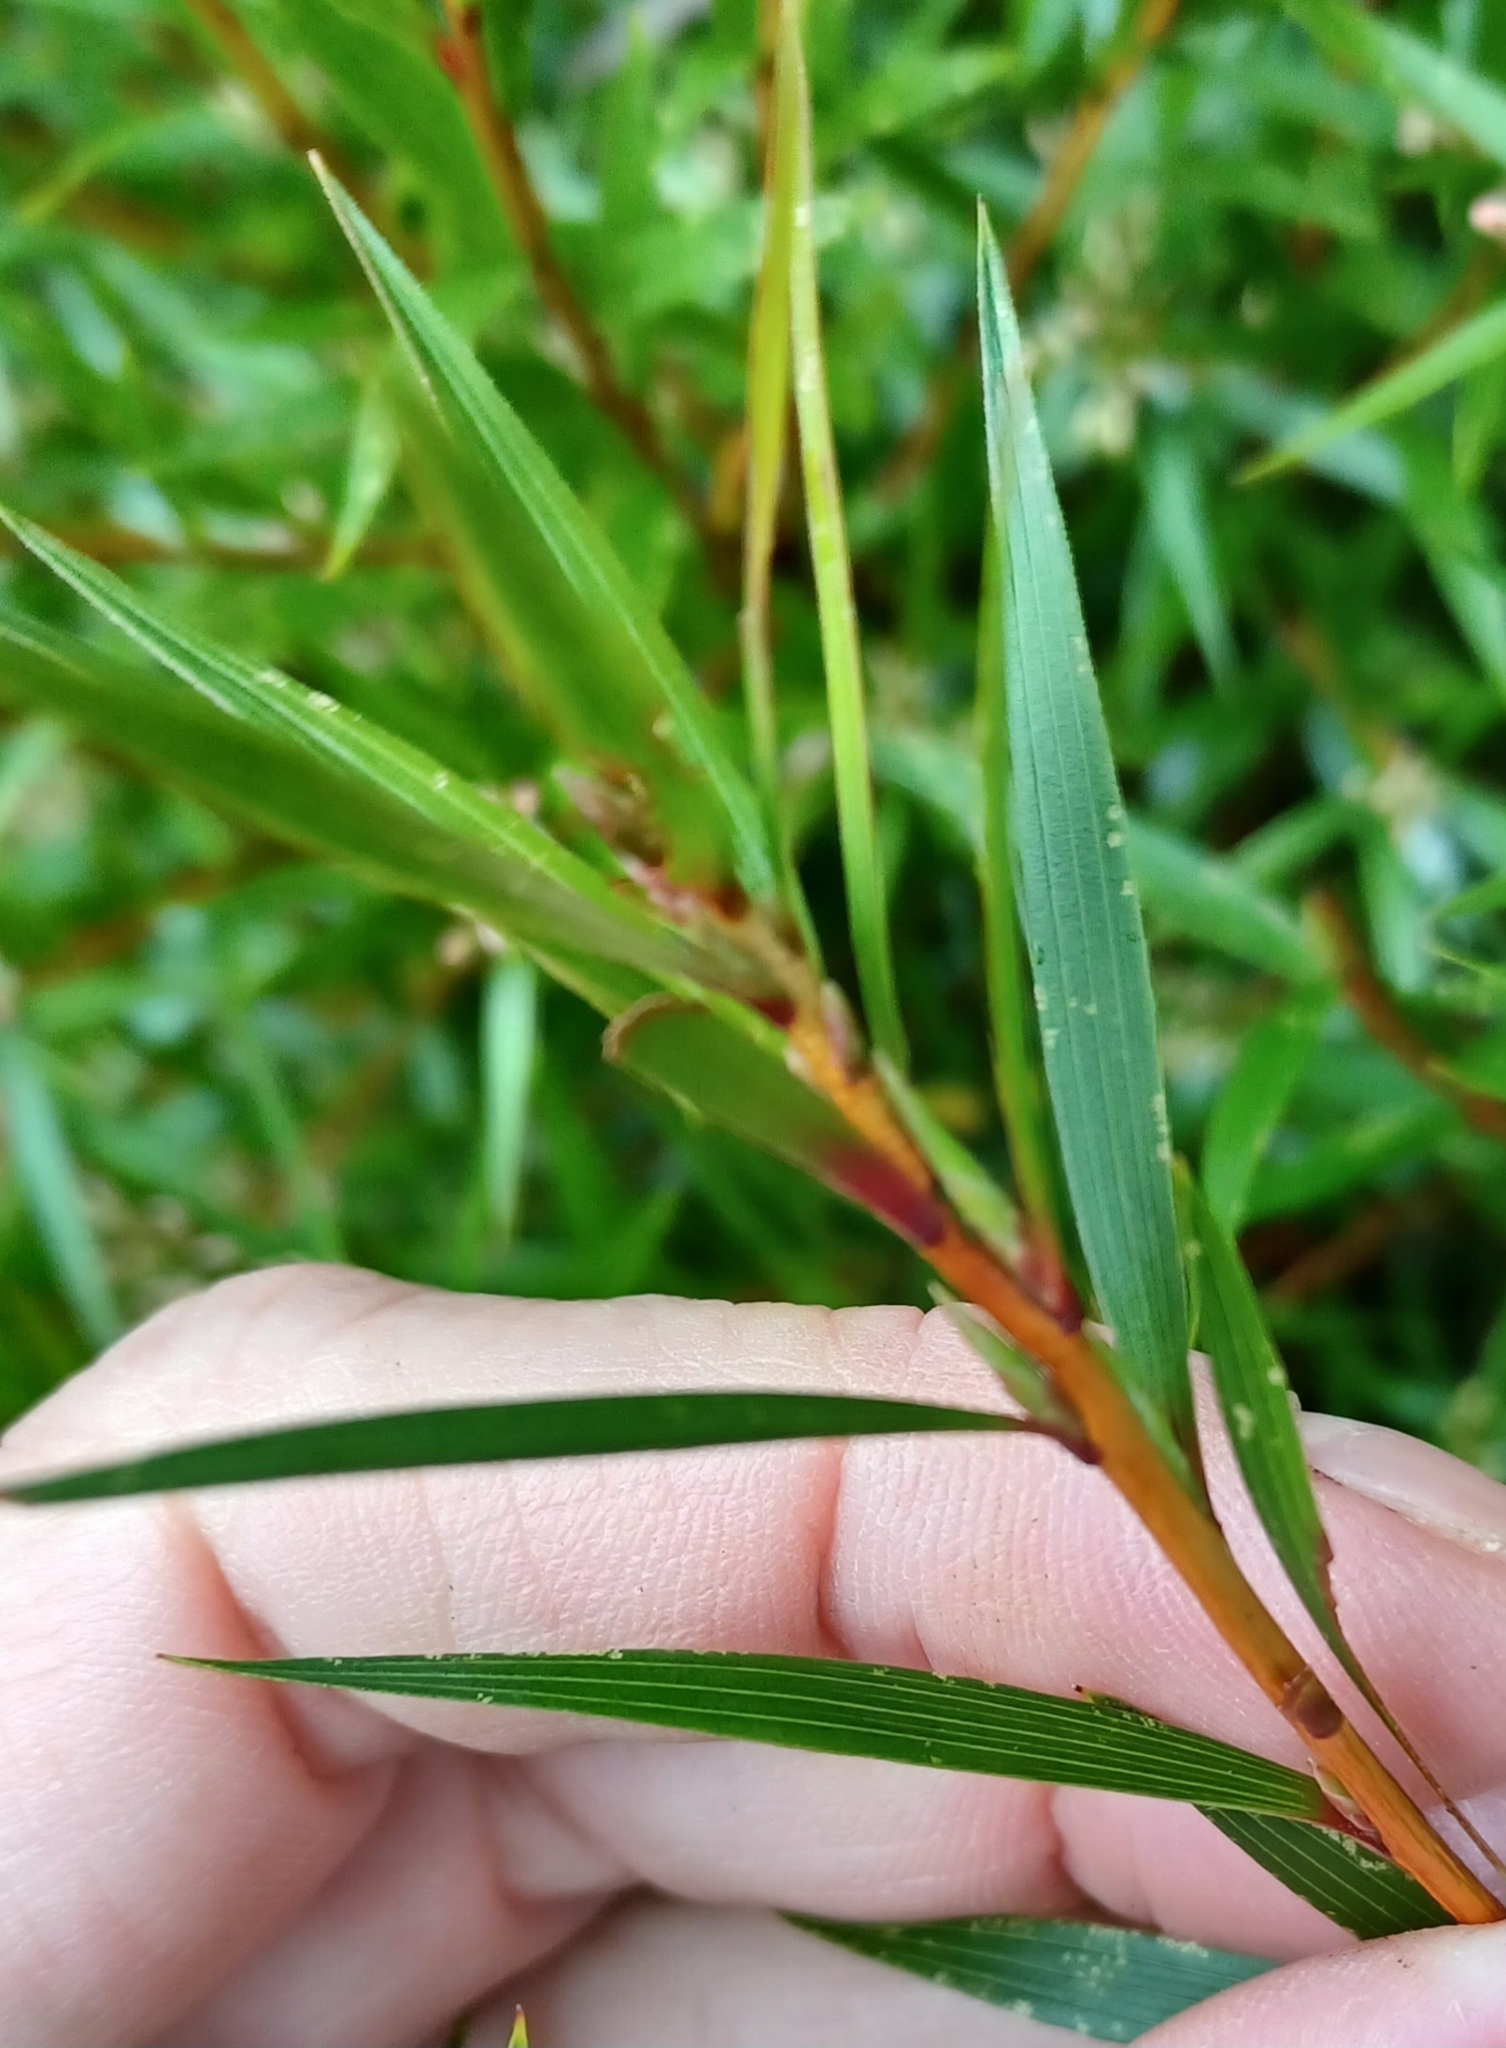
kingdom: Plantae
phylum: Tracheophyta
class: Magnoliopsida
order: Ericales
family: Ericaceae
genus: Leucopogon
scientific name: Leucopogon neurophyllus
